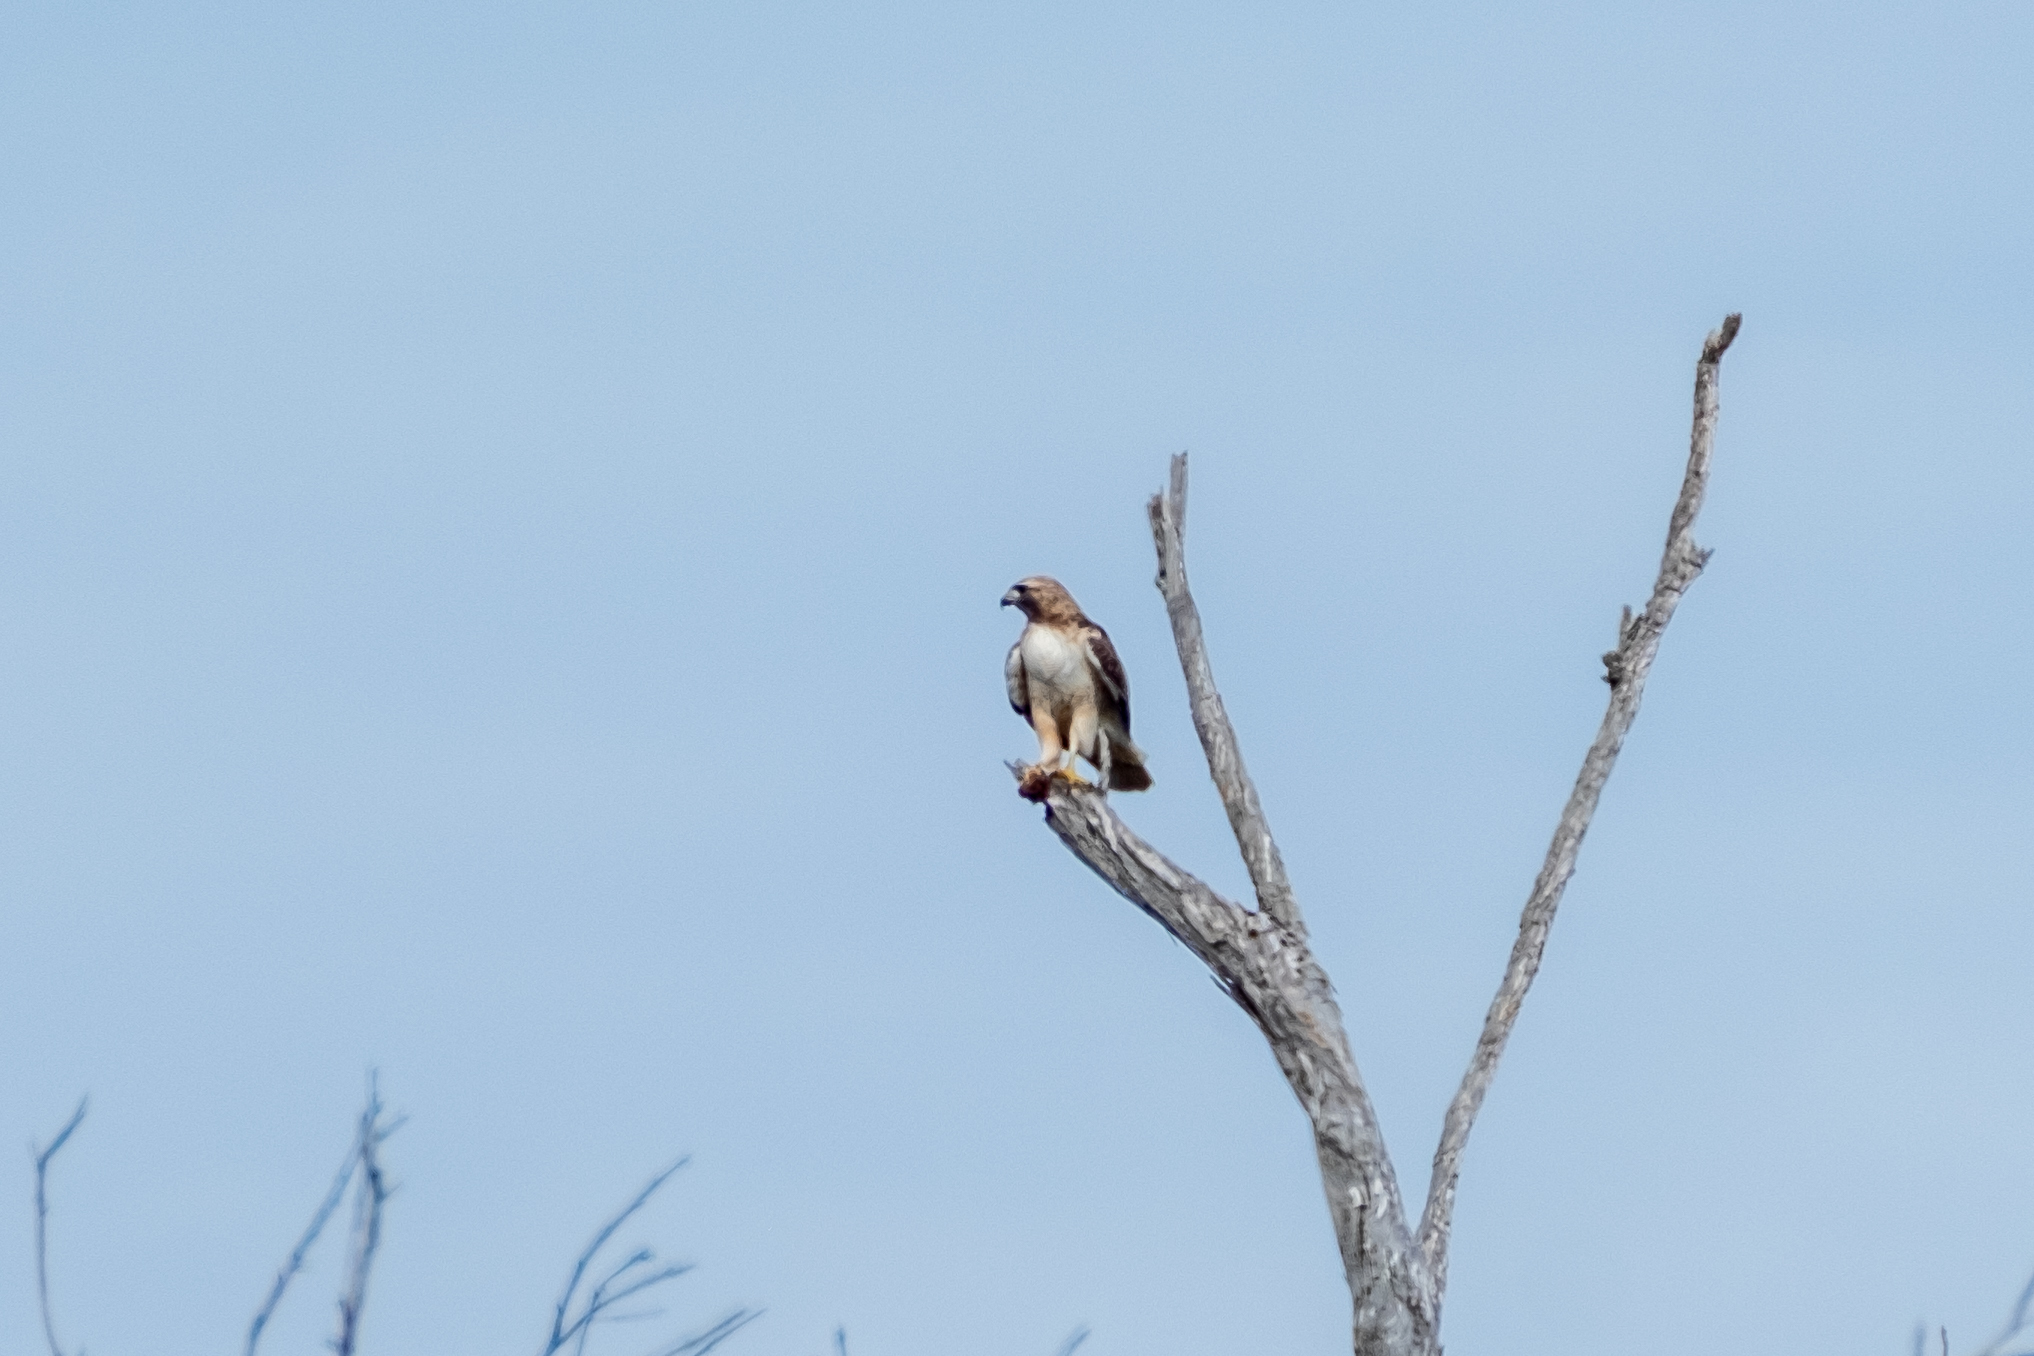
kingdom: Animalia
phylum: Chordata
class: Aves
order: Accipitriformes
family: Accipitridae
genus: Buteo
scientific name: Buteo jamaicensis
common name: Red-tailed hawk
